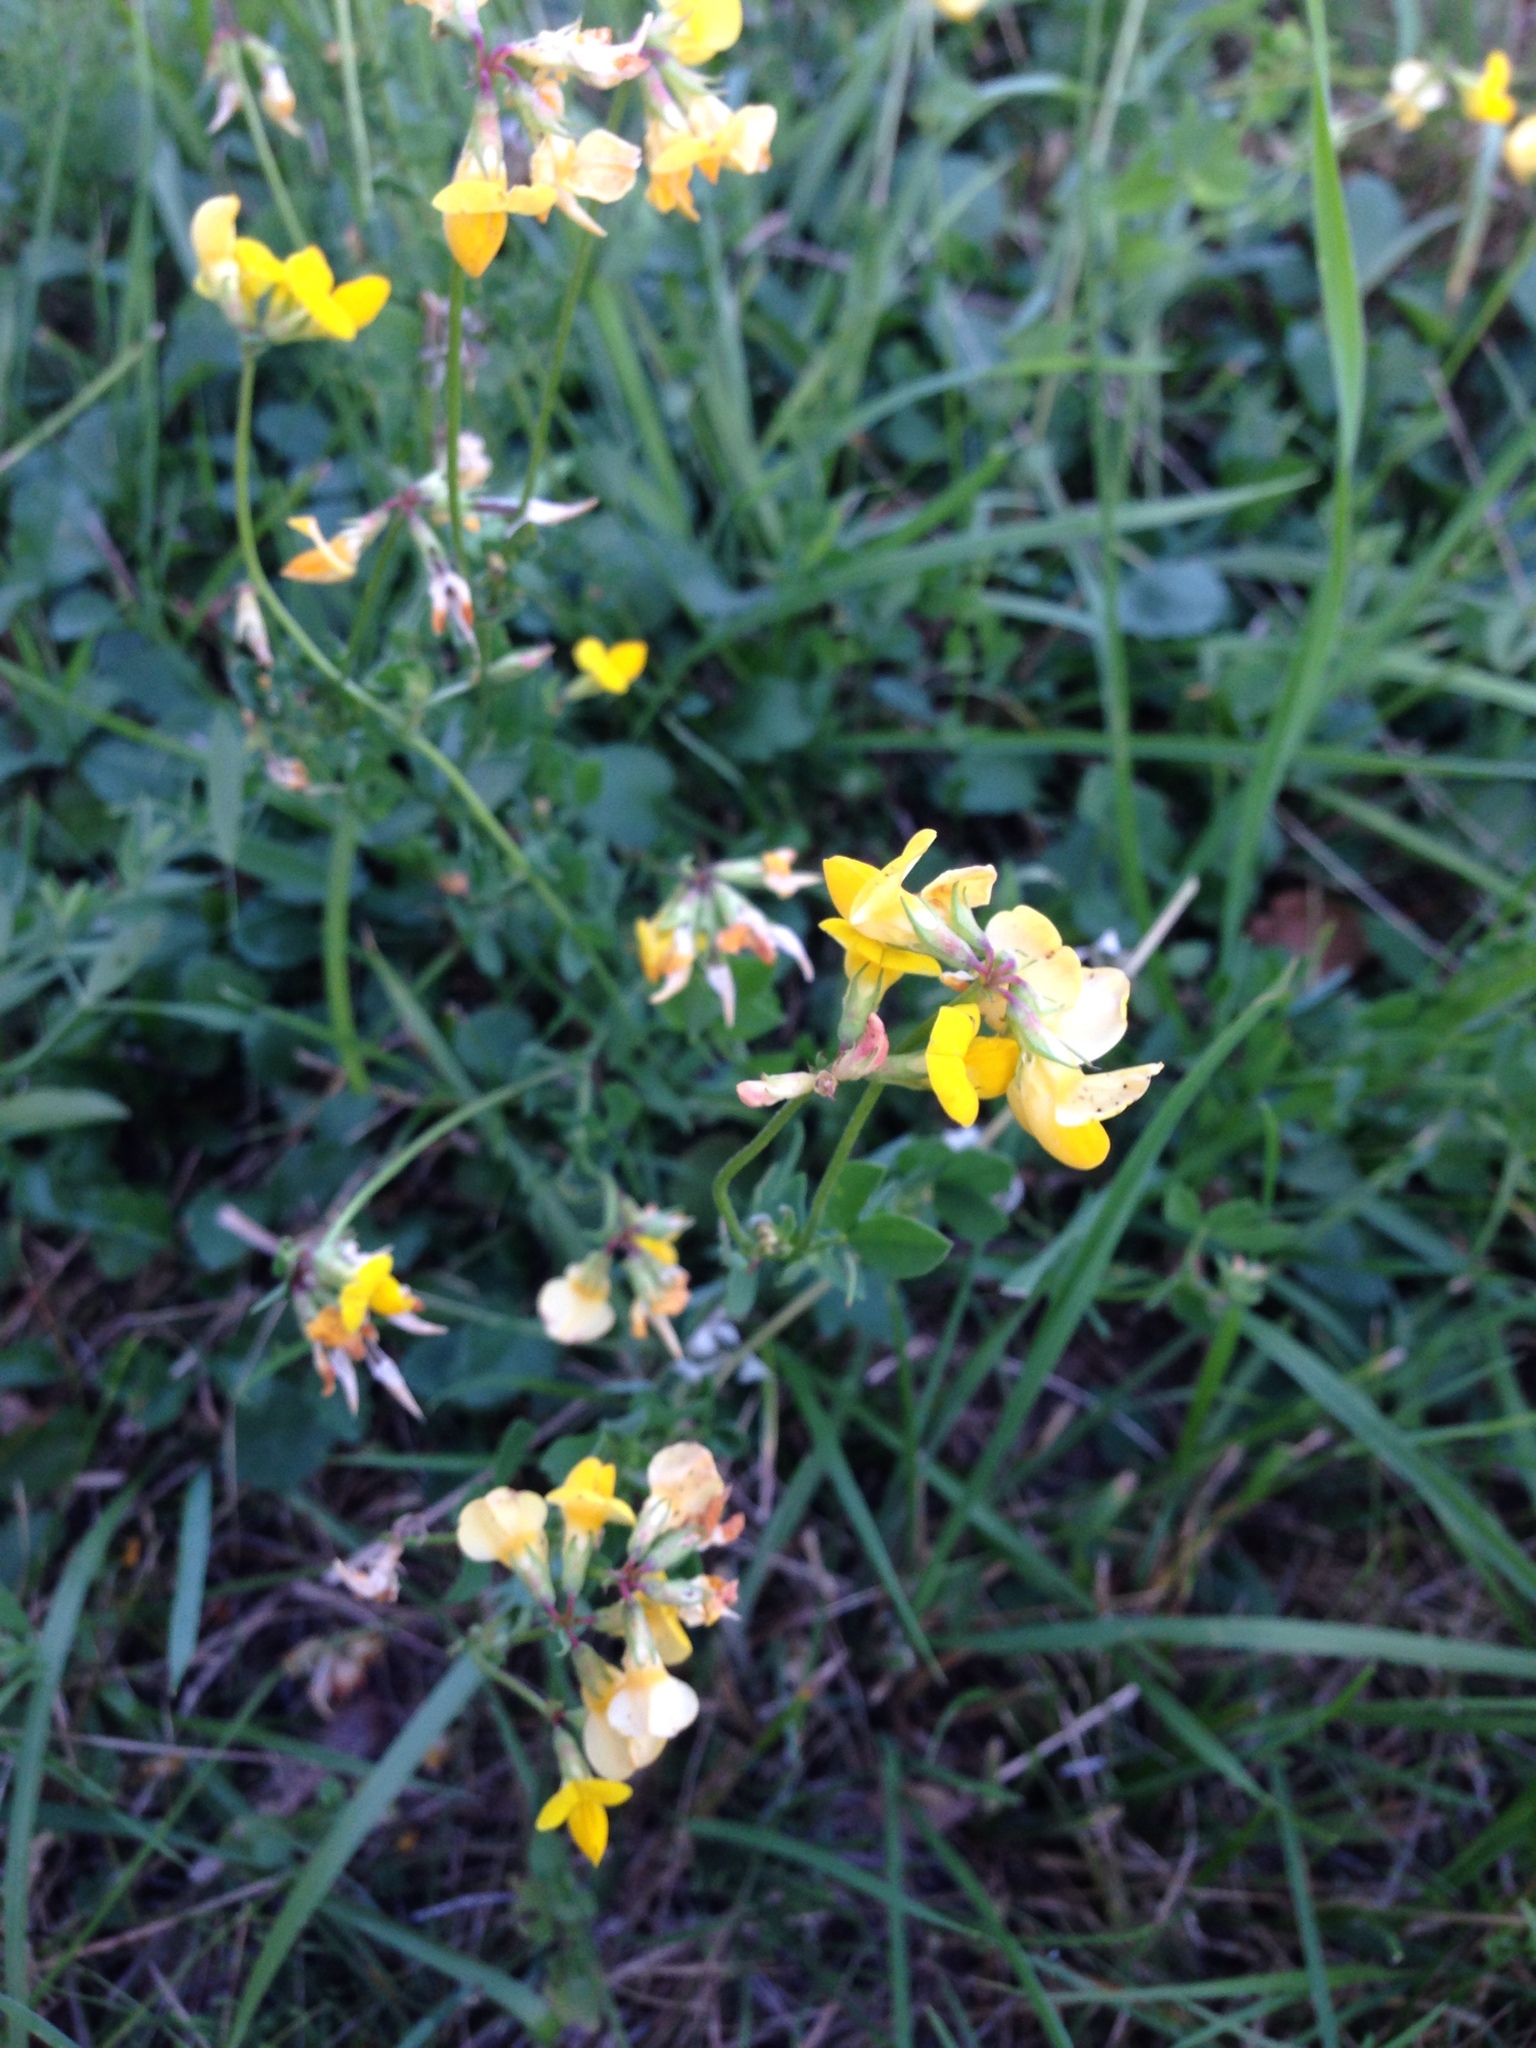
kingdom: Plantae
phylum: Tracheophyta
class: Magnoliopsida
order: Fabales
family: Fabaceae
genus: Lotus
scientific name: Lotus corniculatus
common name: Common bird's-foot-trefoil
